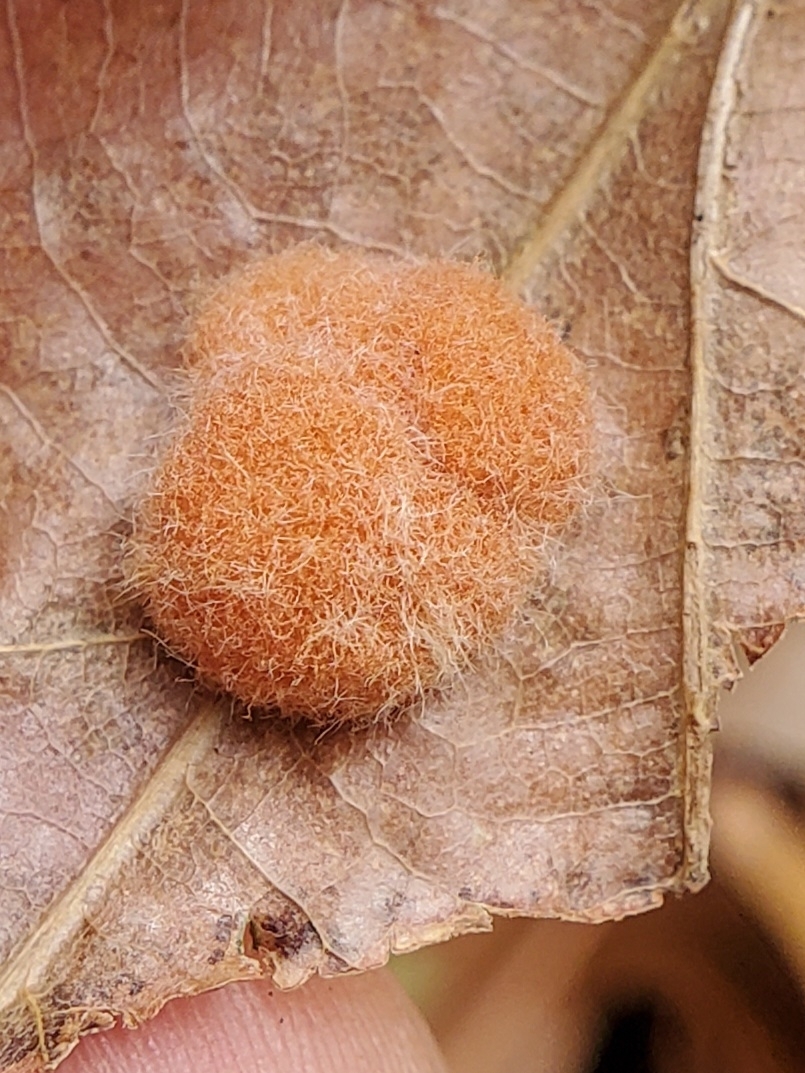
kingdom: Animalia
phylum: Arthropoda
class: Insecta
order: Hymenoptera
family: Cynipidae
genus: Andricus
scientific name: Andricus quercusflocci
